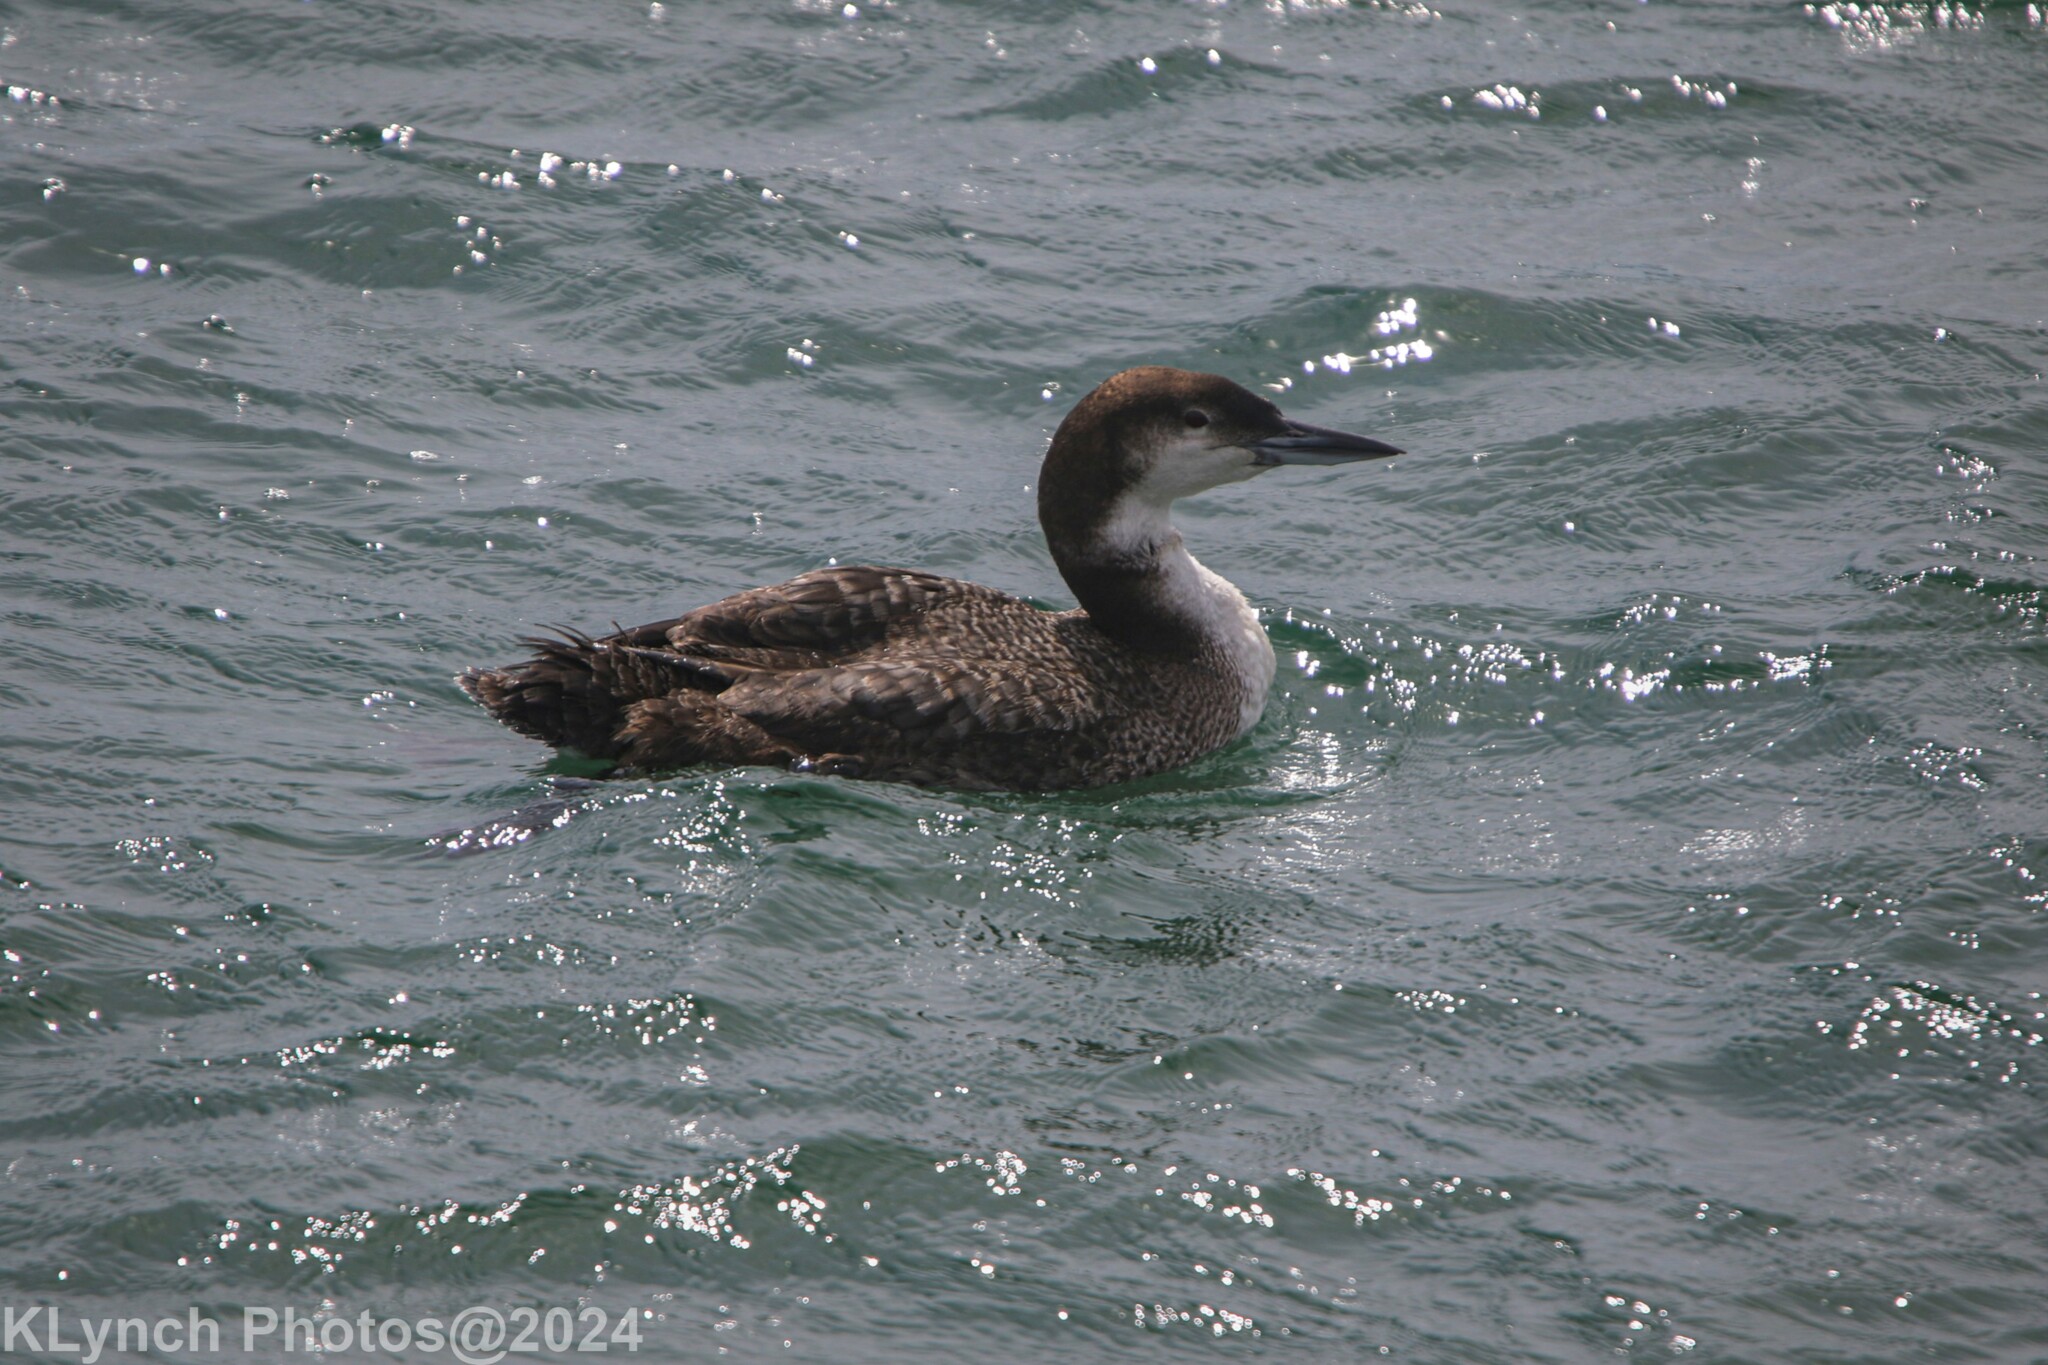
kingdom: Animalia
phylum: Chordata
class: Aves
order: Gaviiformes
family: Gaviidae
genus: Gavia
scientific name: Gavia immer
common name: Common loon
